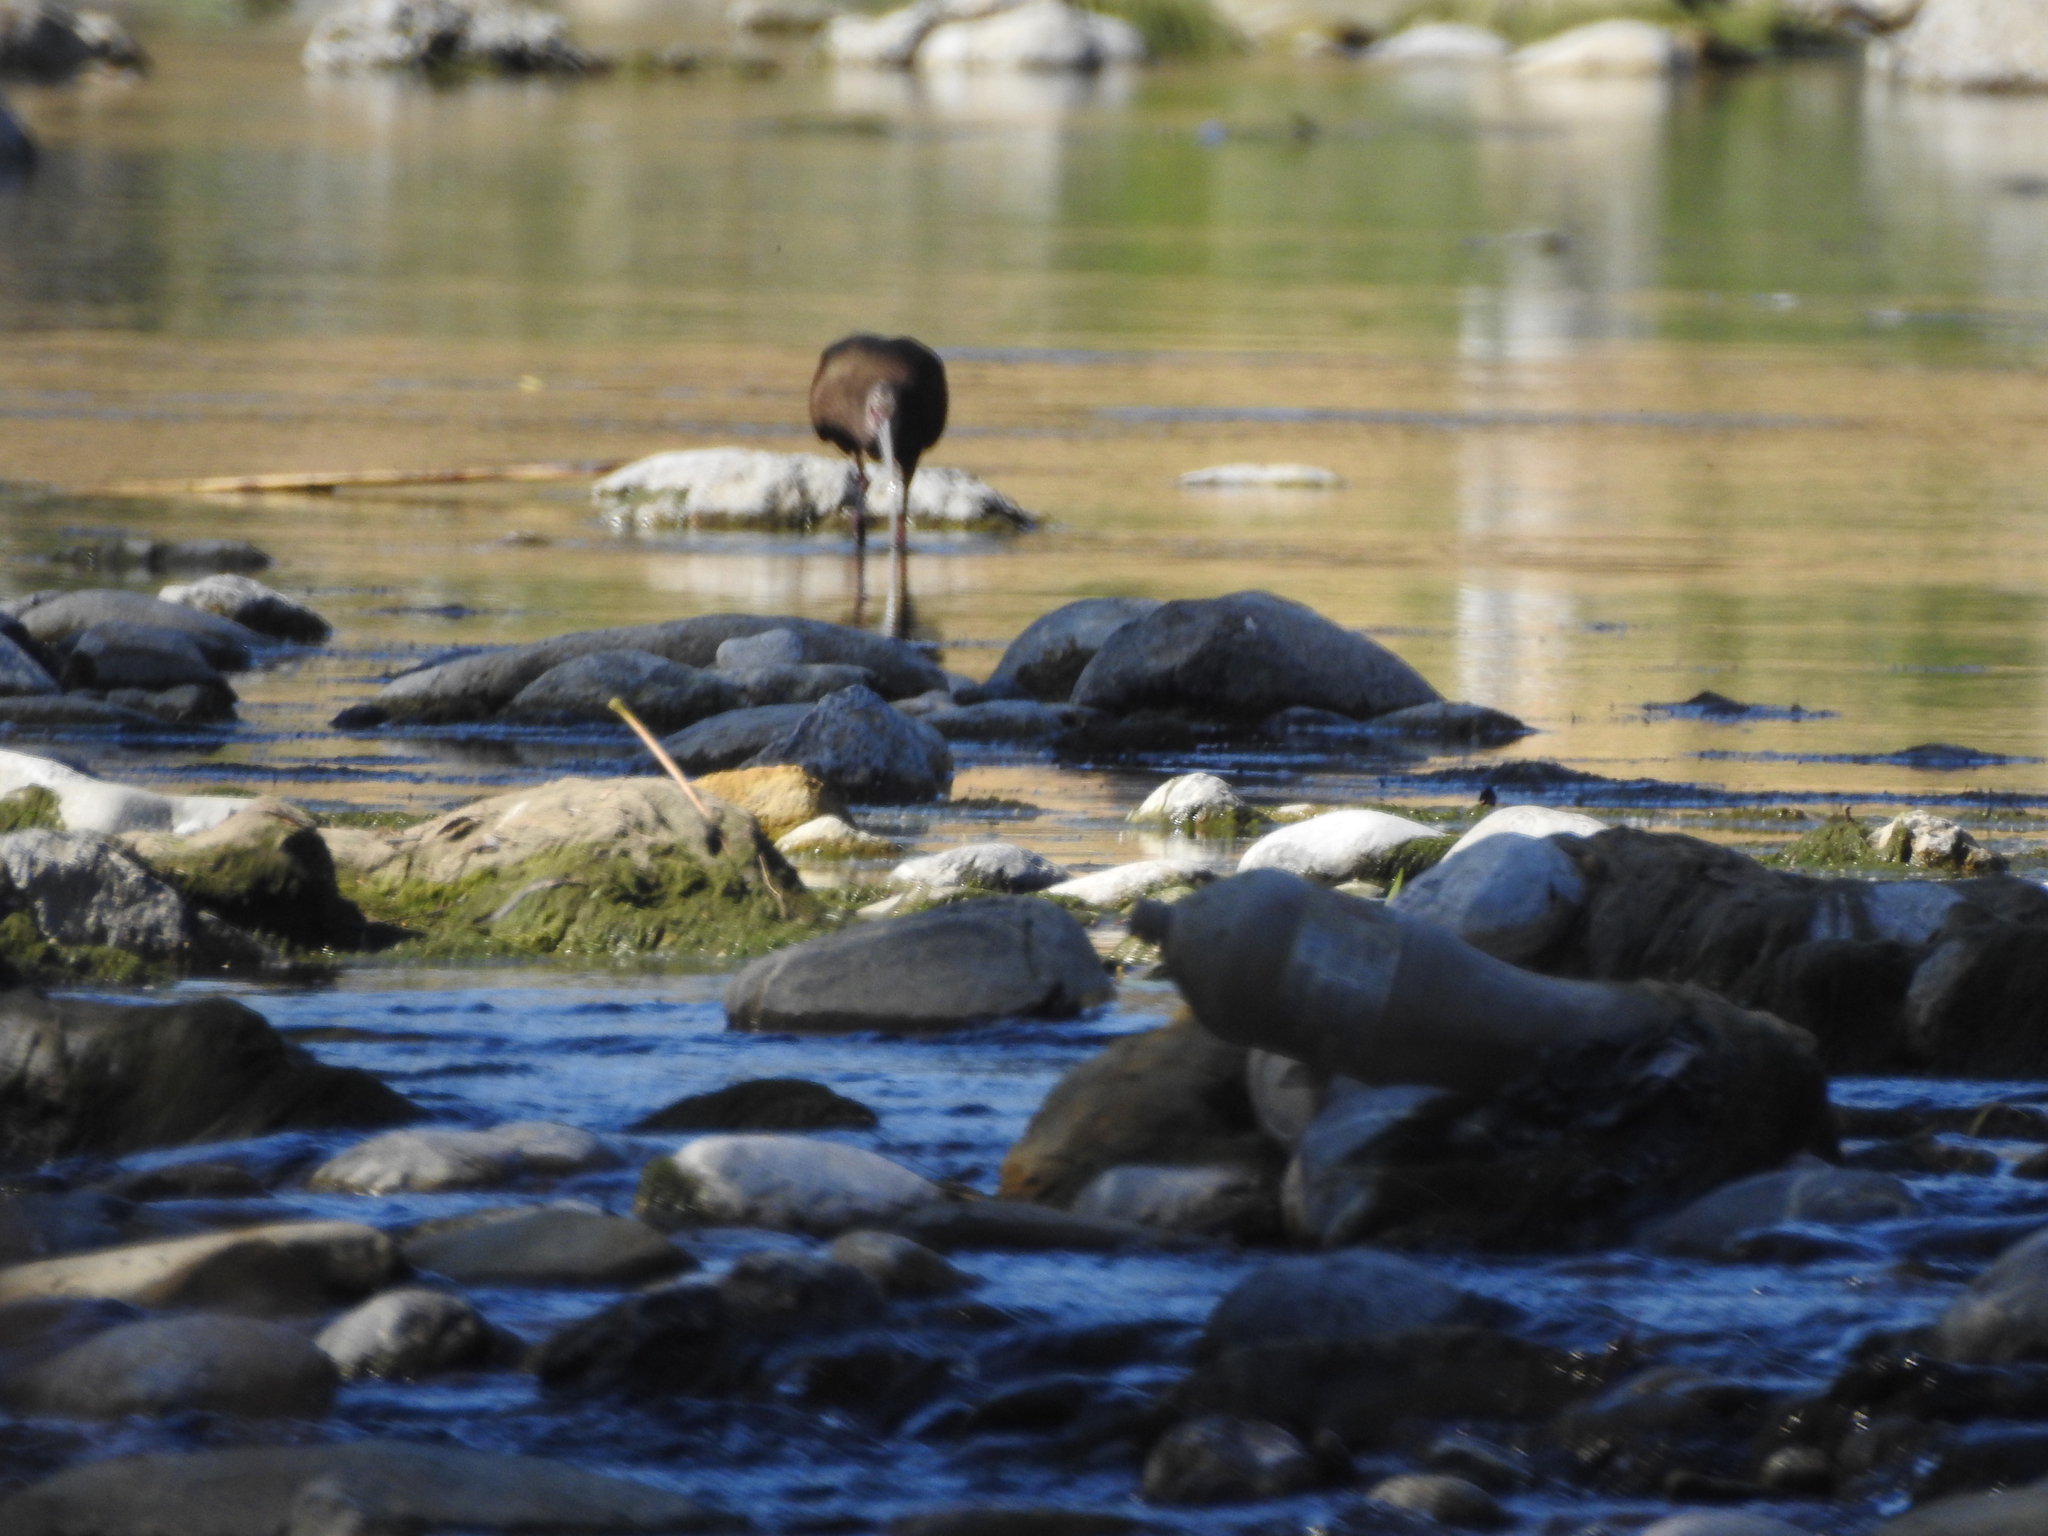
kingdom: Animalia
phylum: Chordata
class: Aves
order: Pelecaniformes
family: Threskiornithidae
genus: Plegadis
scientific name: Plegadis chihi
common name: White-faced ibis
